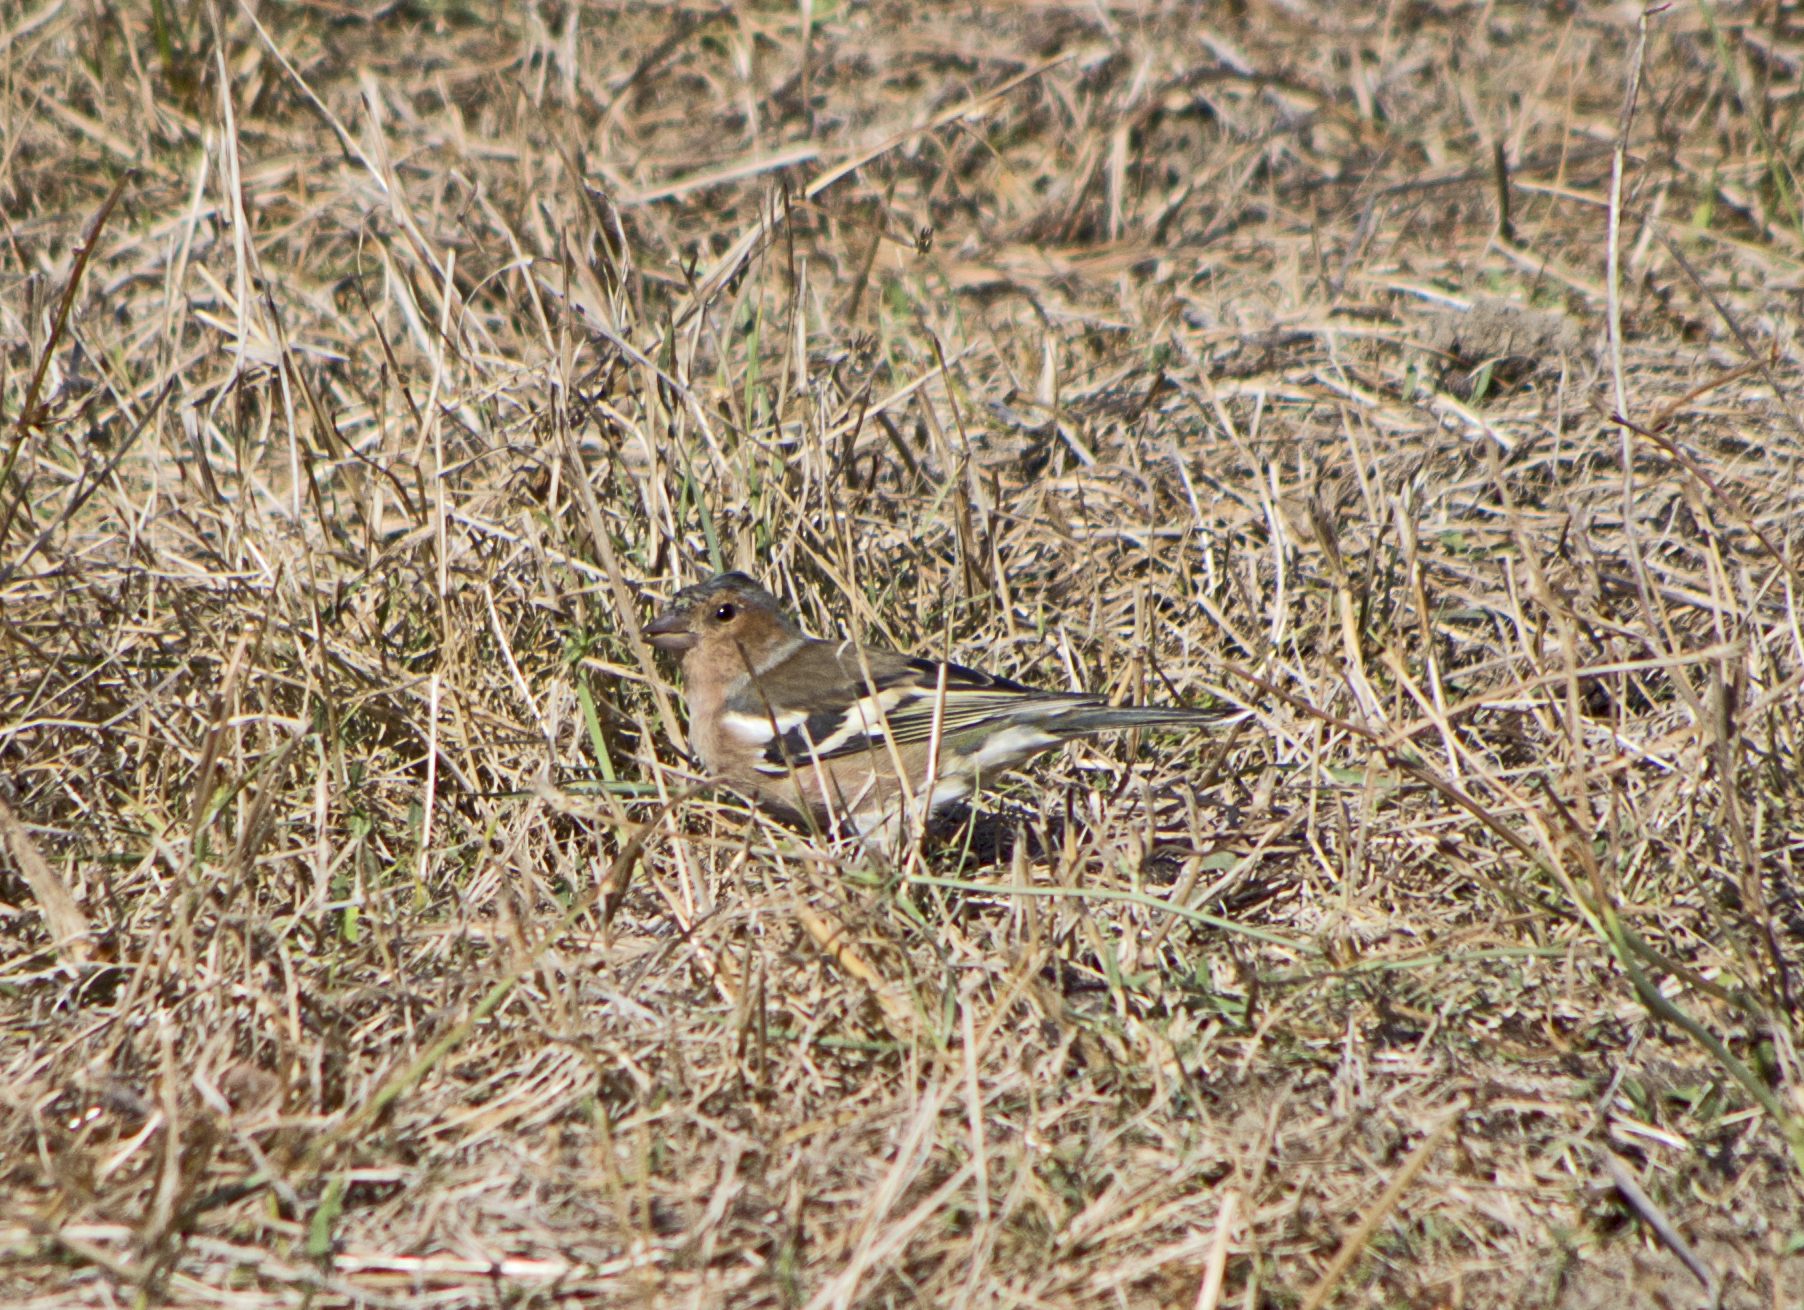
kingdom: Animalia
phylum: Chordata
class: Aves
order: Passeriformes
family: Fringillidae
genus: Fringilla
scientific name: Fringilla coelebs
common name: Common chaffinch
